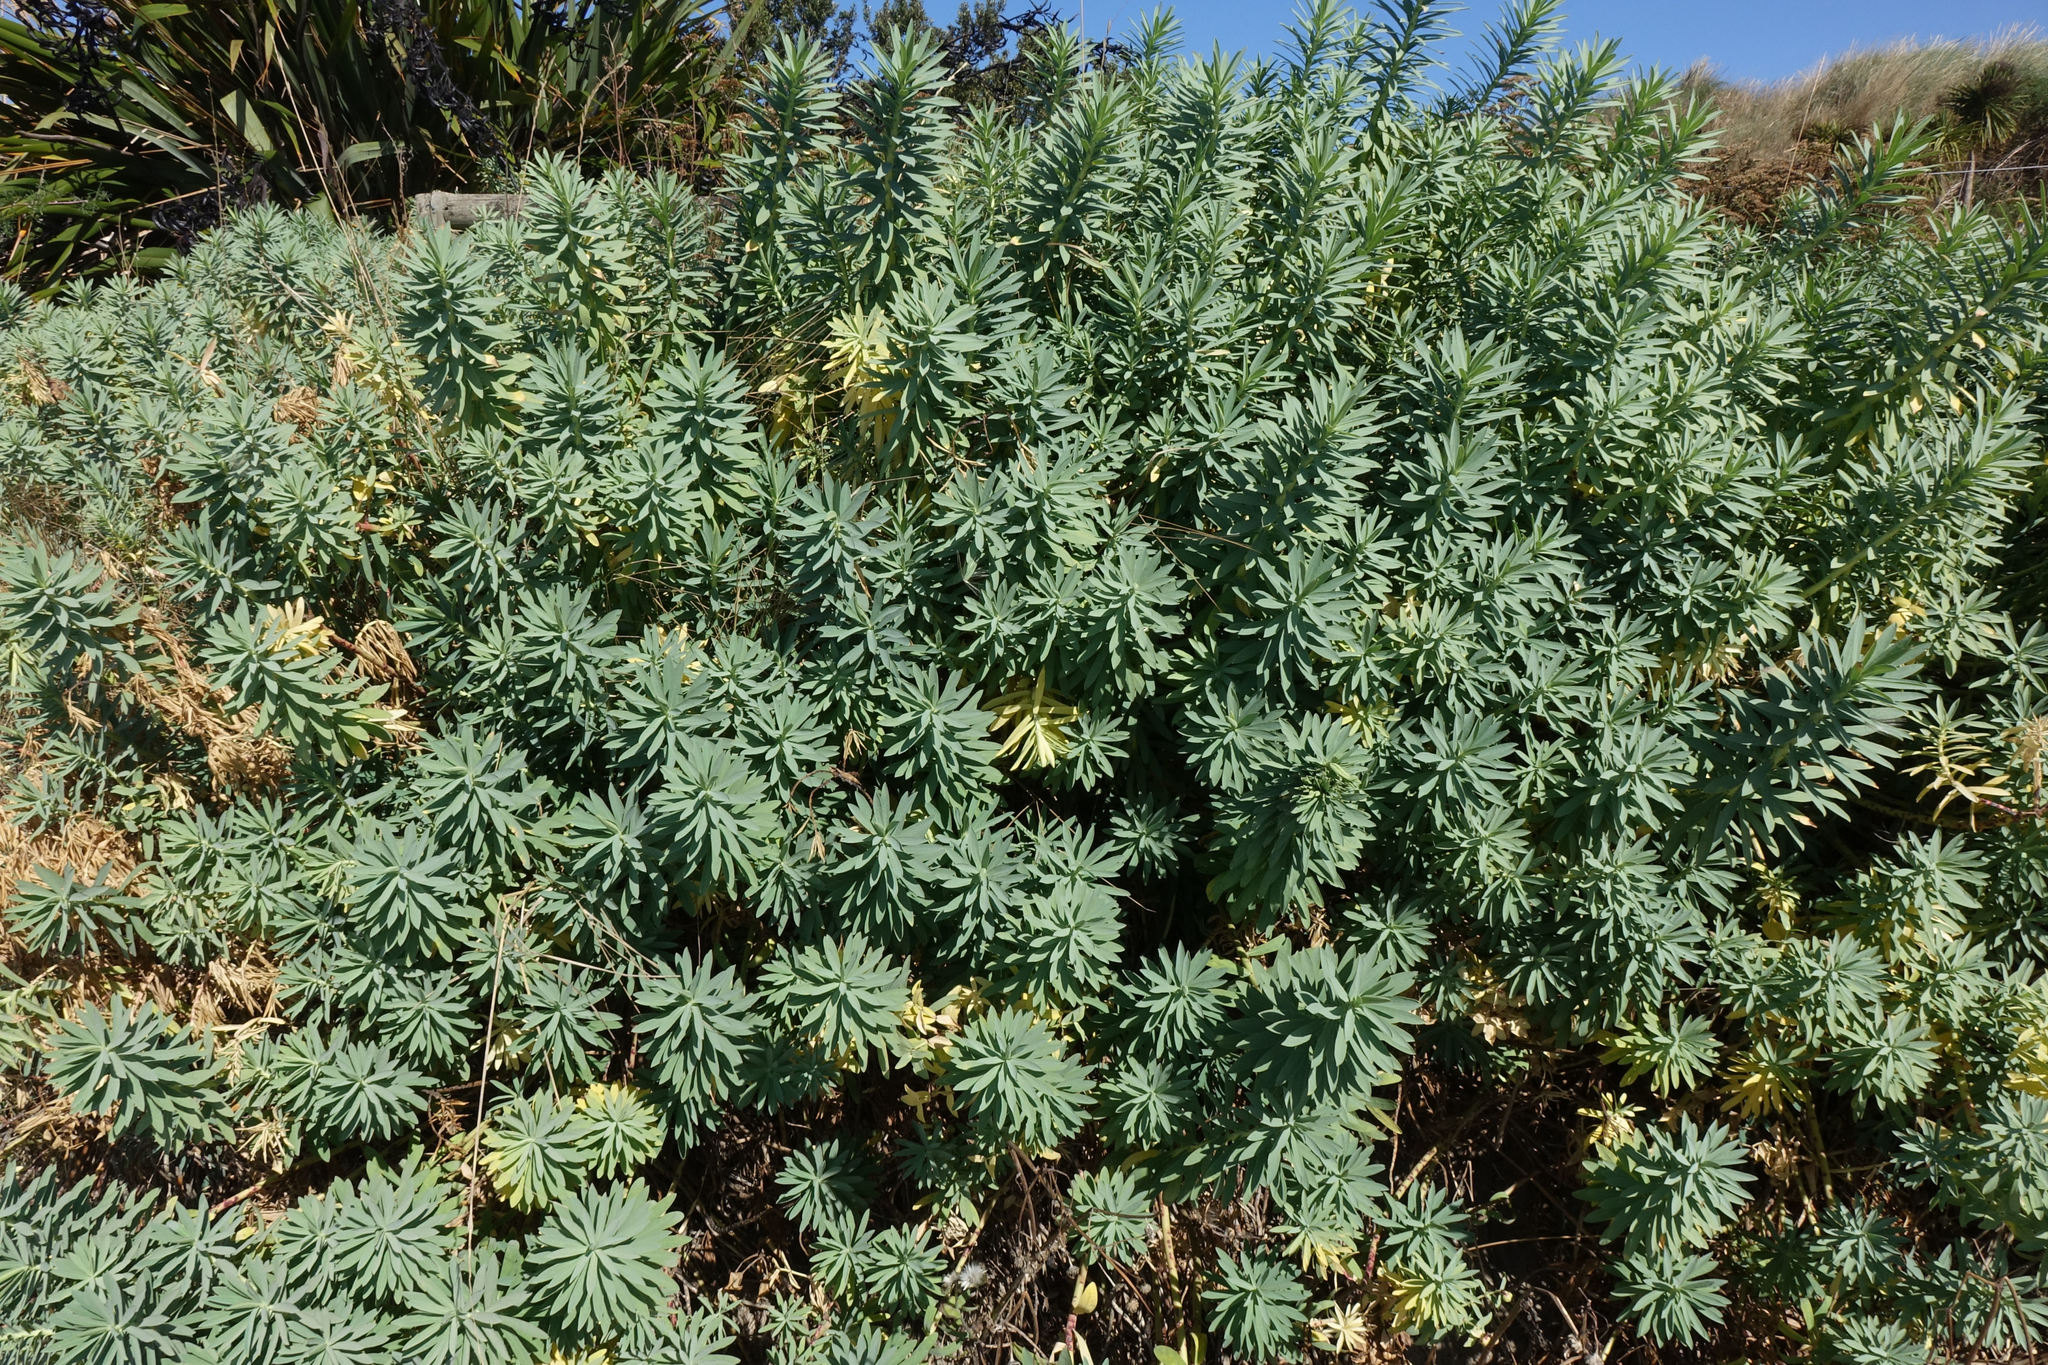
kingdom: Plantae
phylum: Tracheophyta
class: Magnoliopsida
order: Malpighiales
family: Euphorbiaceae
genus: Euphorbia
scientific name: Euphorbia glauca
